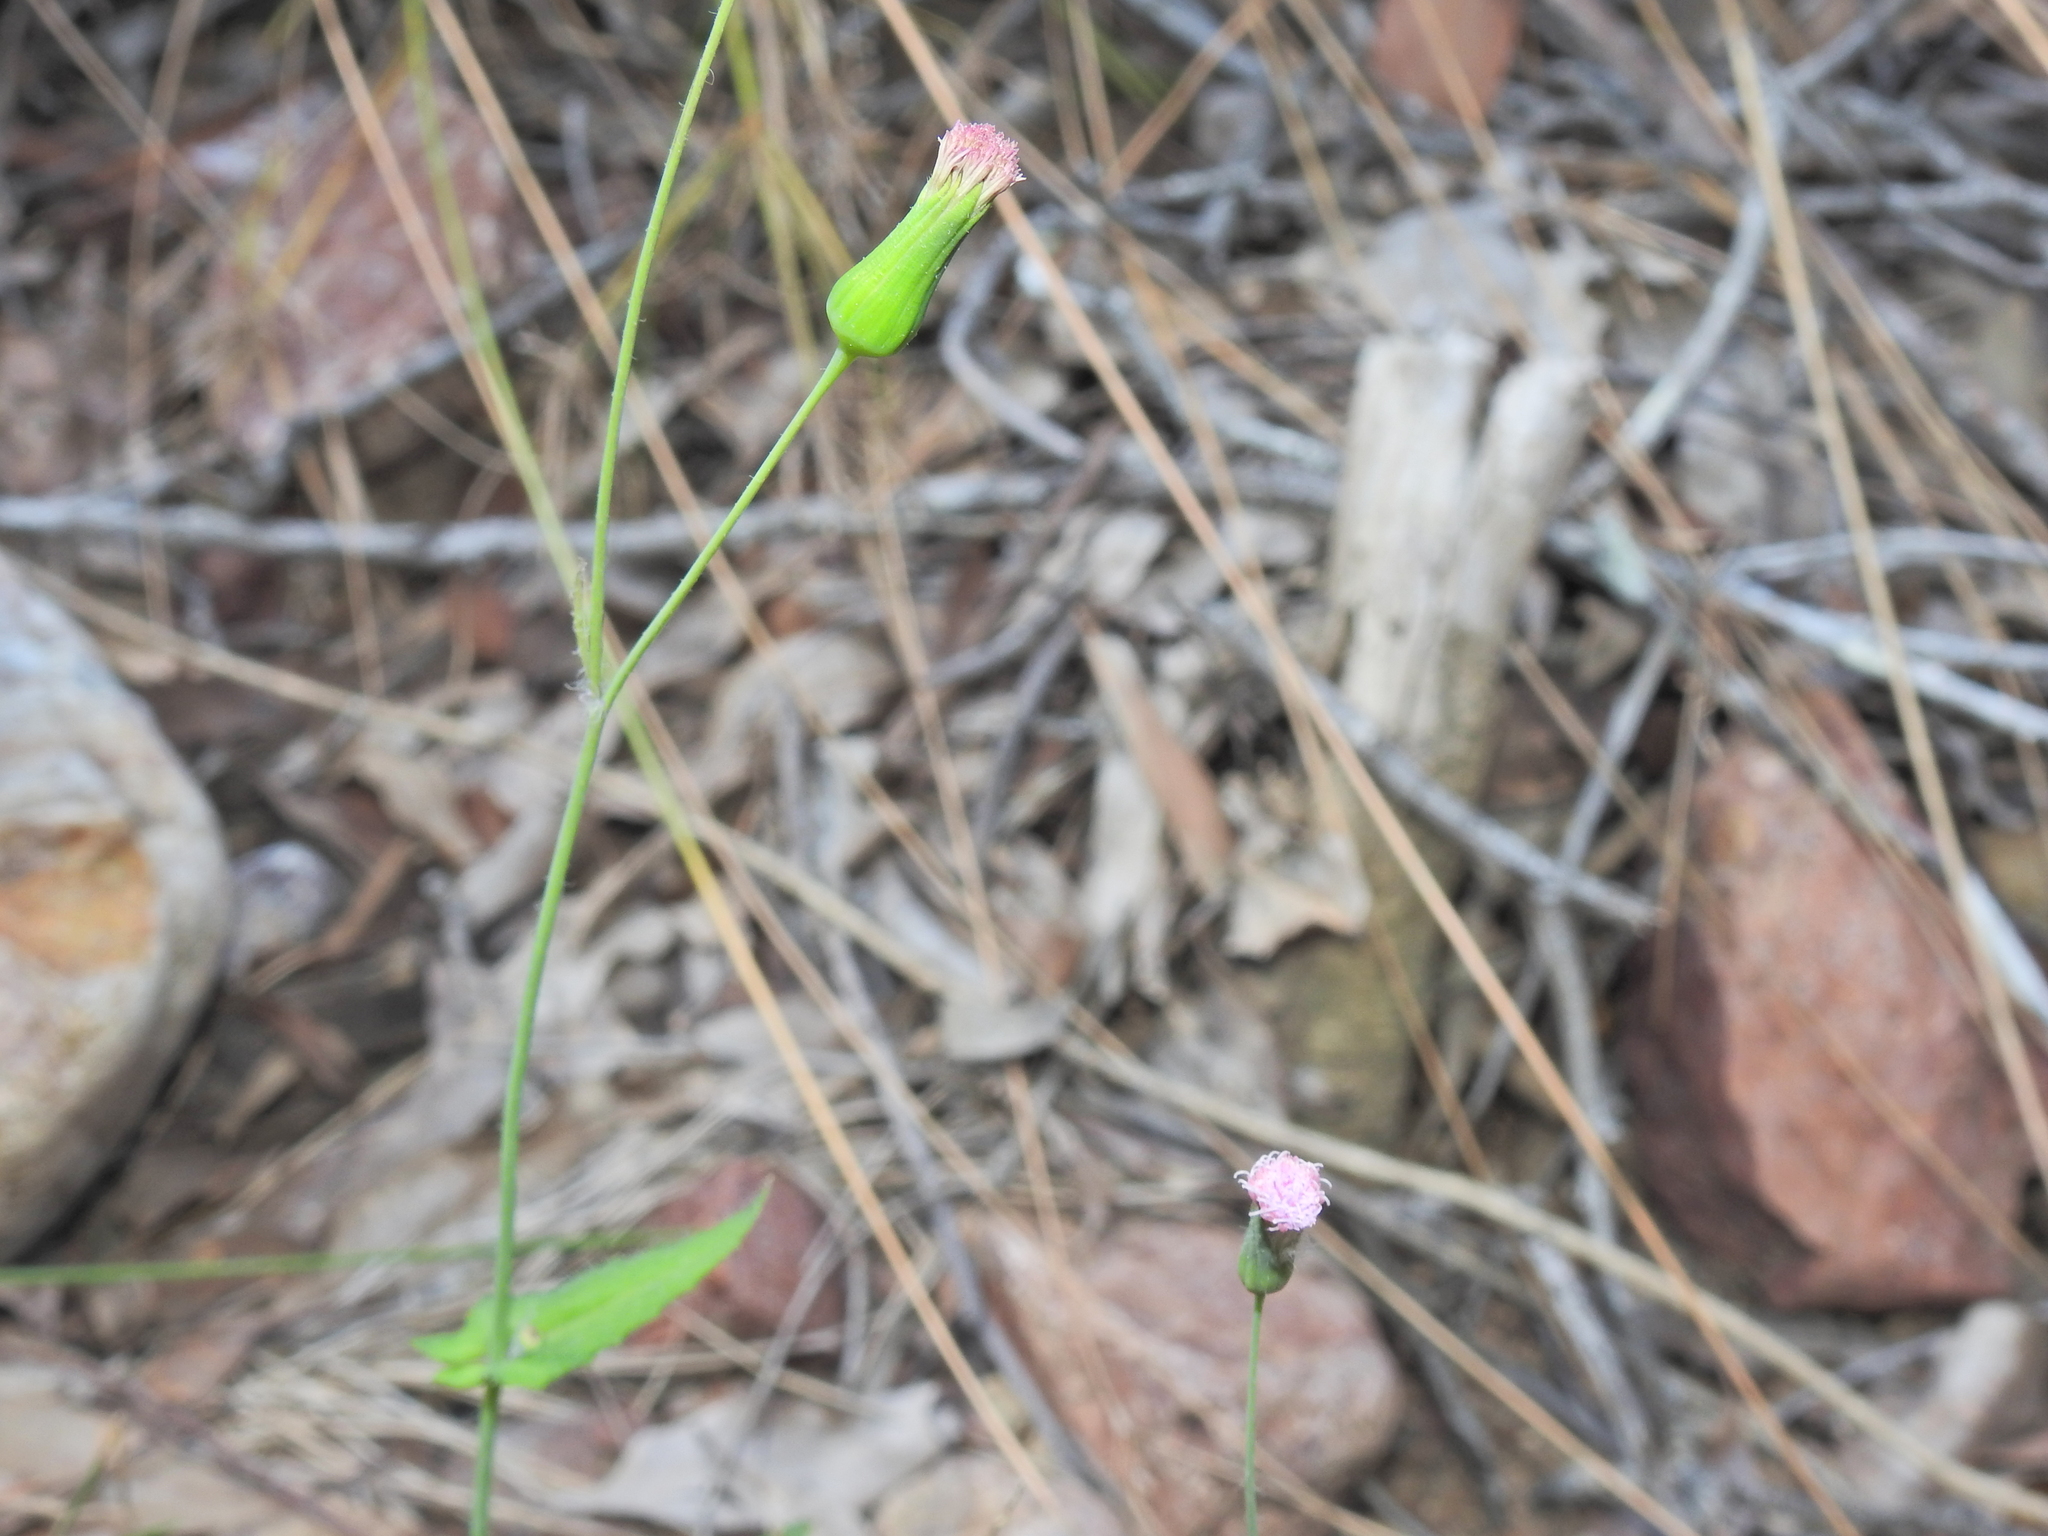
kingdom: Plantae
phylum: Tracheophyta
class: Magnoliopsida
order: Asterales
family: Asteraceae
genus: Emilia
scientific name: Emilia javanica
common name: Tassel-flower
